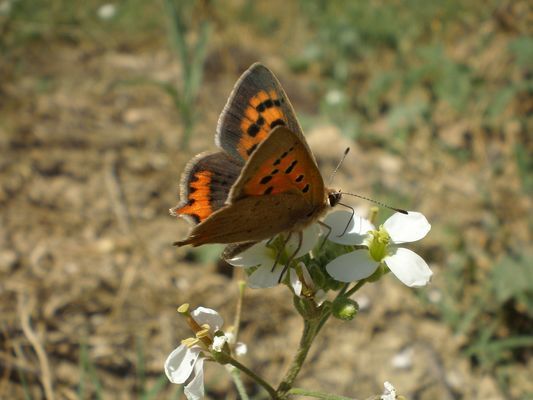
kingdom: Animalia
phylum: Arthropoda
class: Insecta
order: Lepidoptera
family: Lycaenidae
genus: Lycaena
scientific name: Lycaena phlaeas
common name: Small copper
